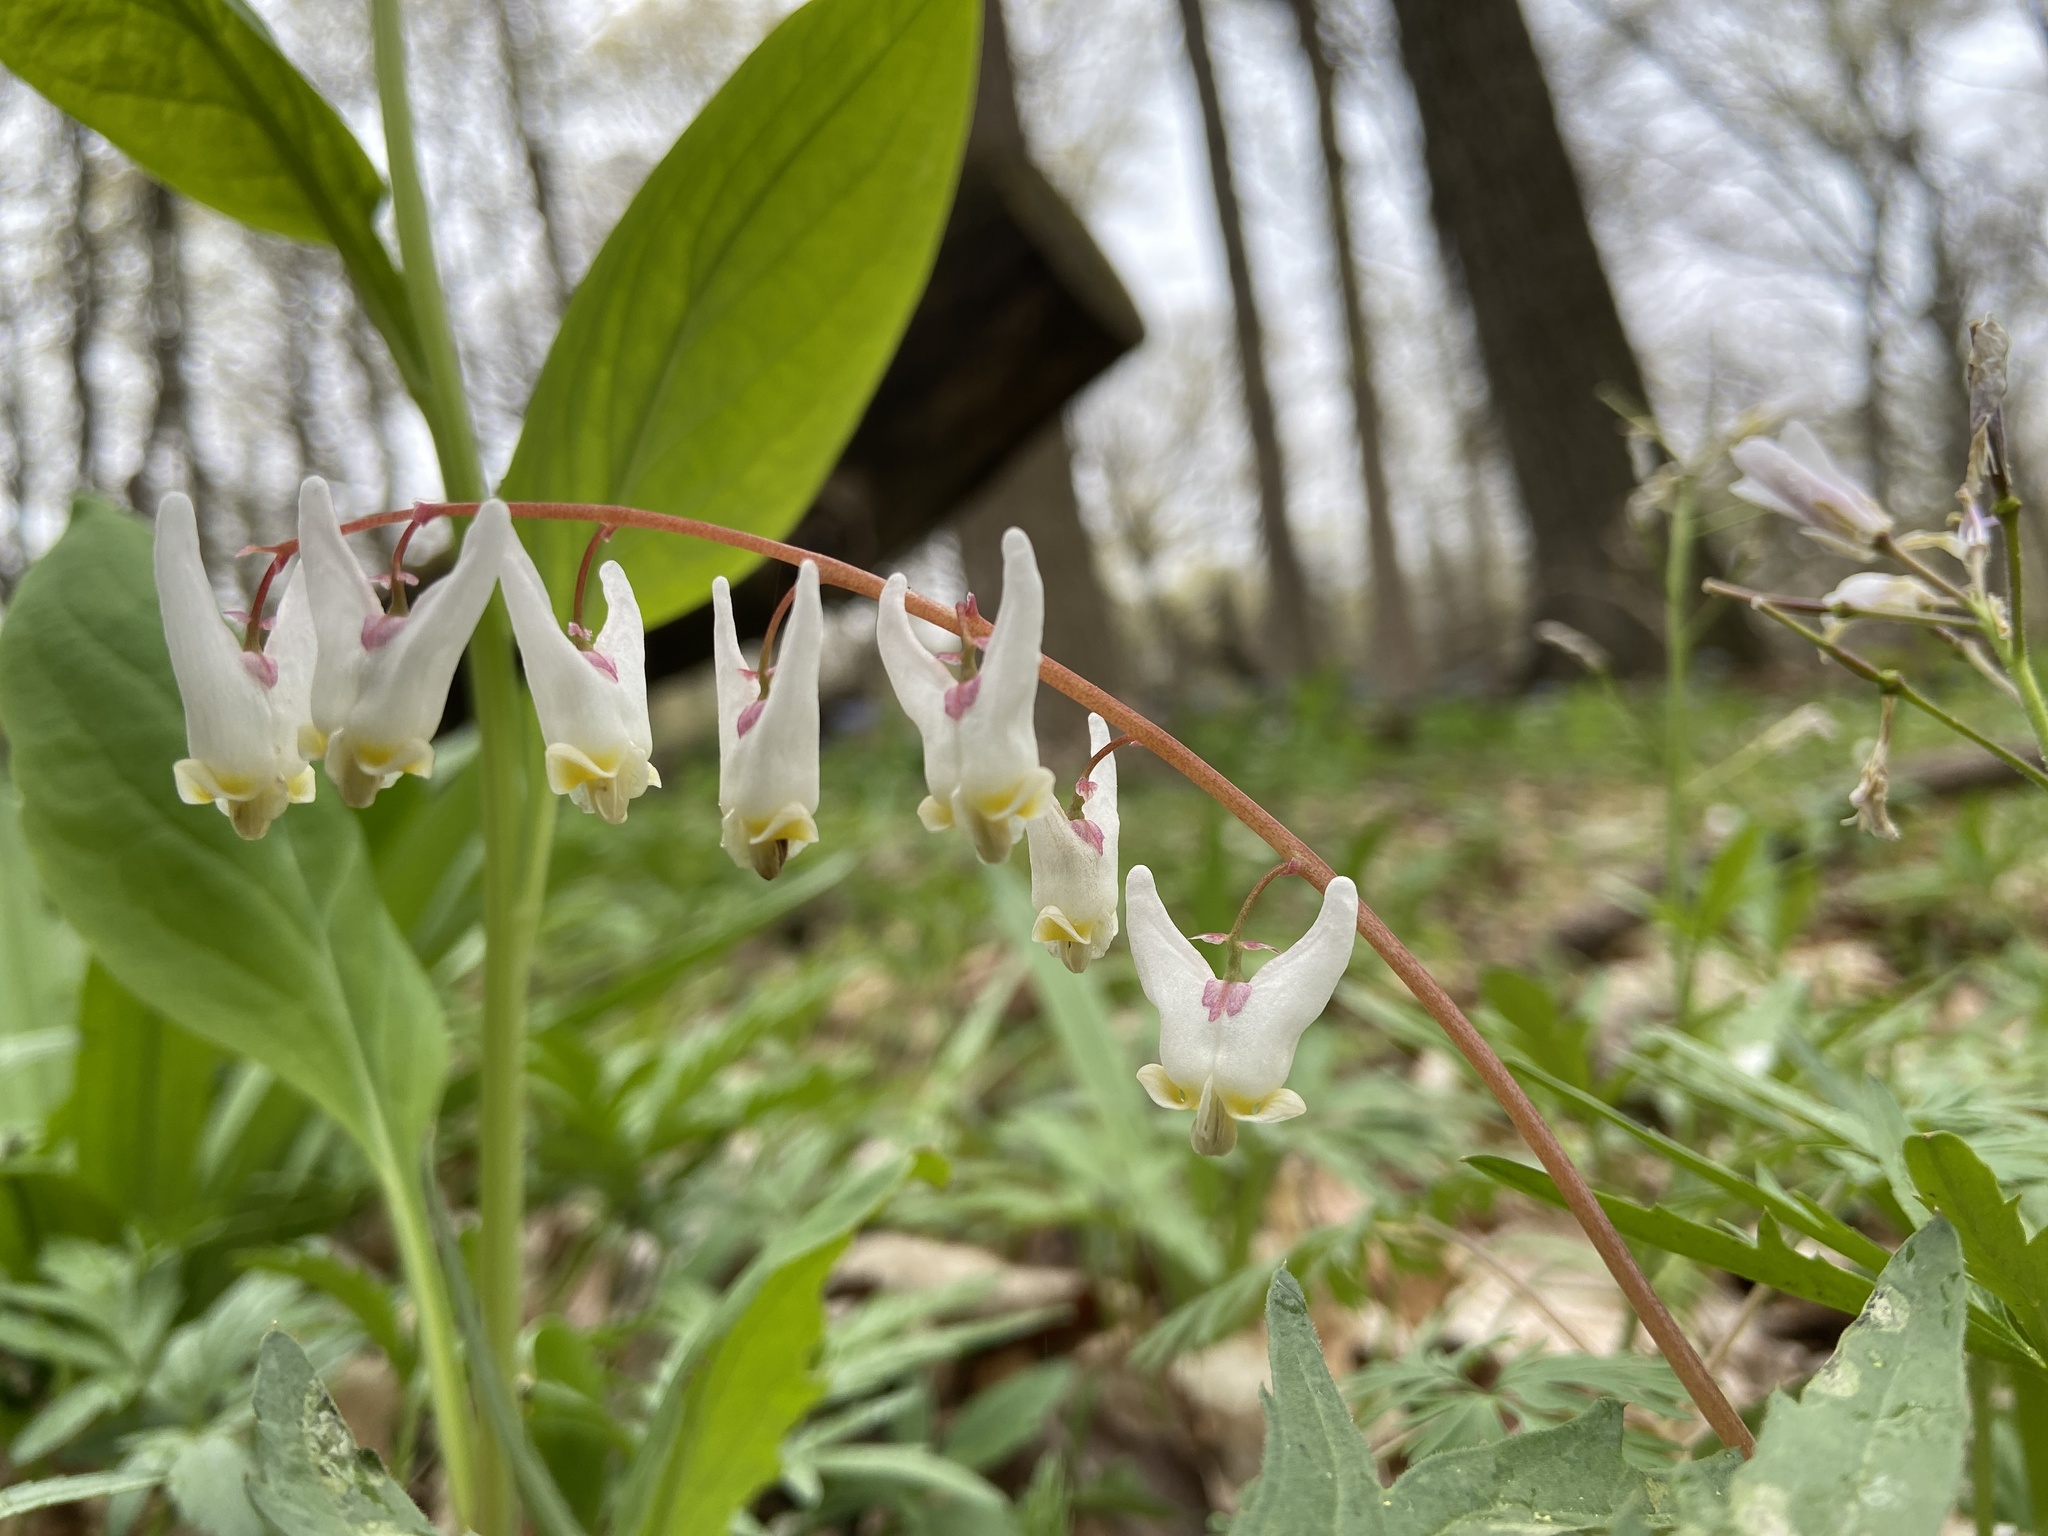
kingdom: Plantae
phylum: Tracheophyta
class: Magnoliopsida
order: Ranunculales
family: Papaveraceae
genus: Dicentra
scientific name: Dicentra cucullaria
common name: Dutchman's breeches
